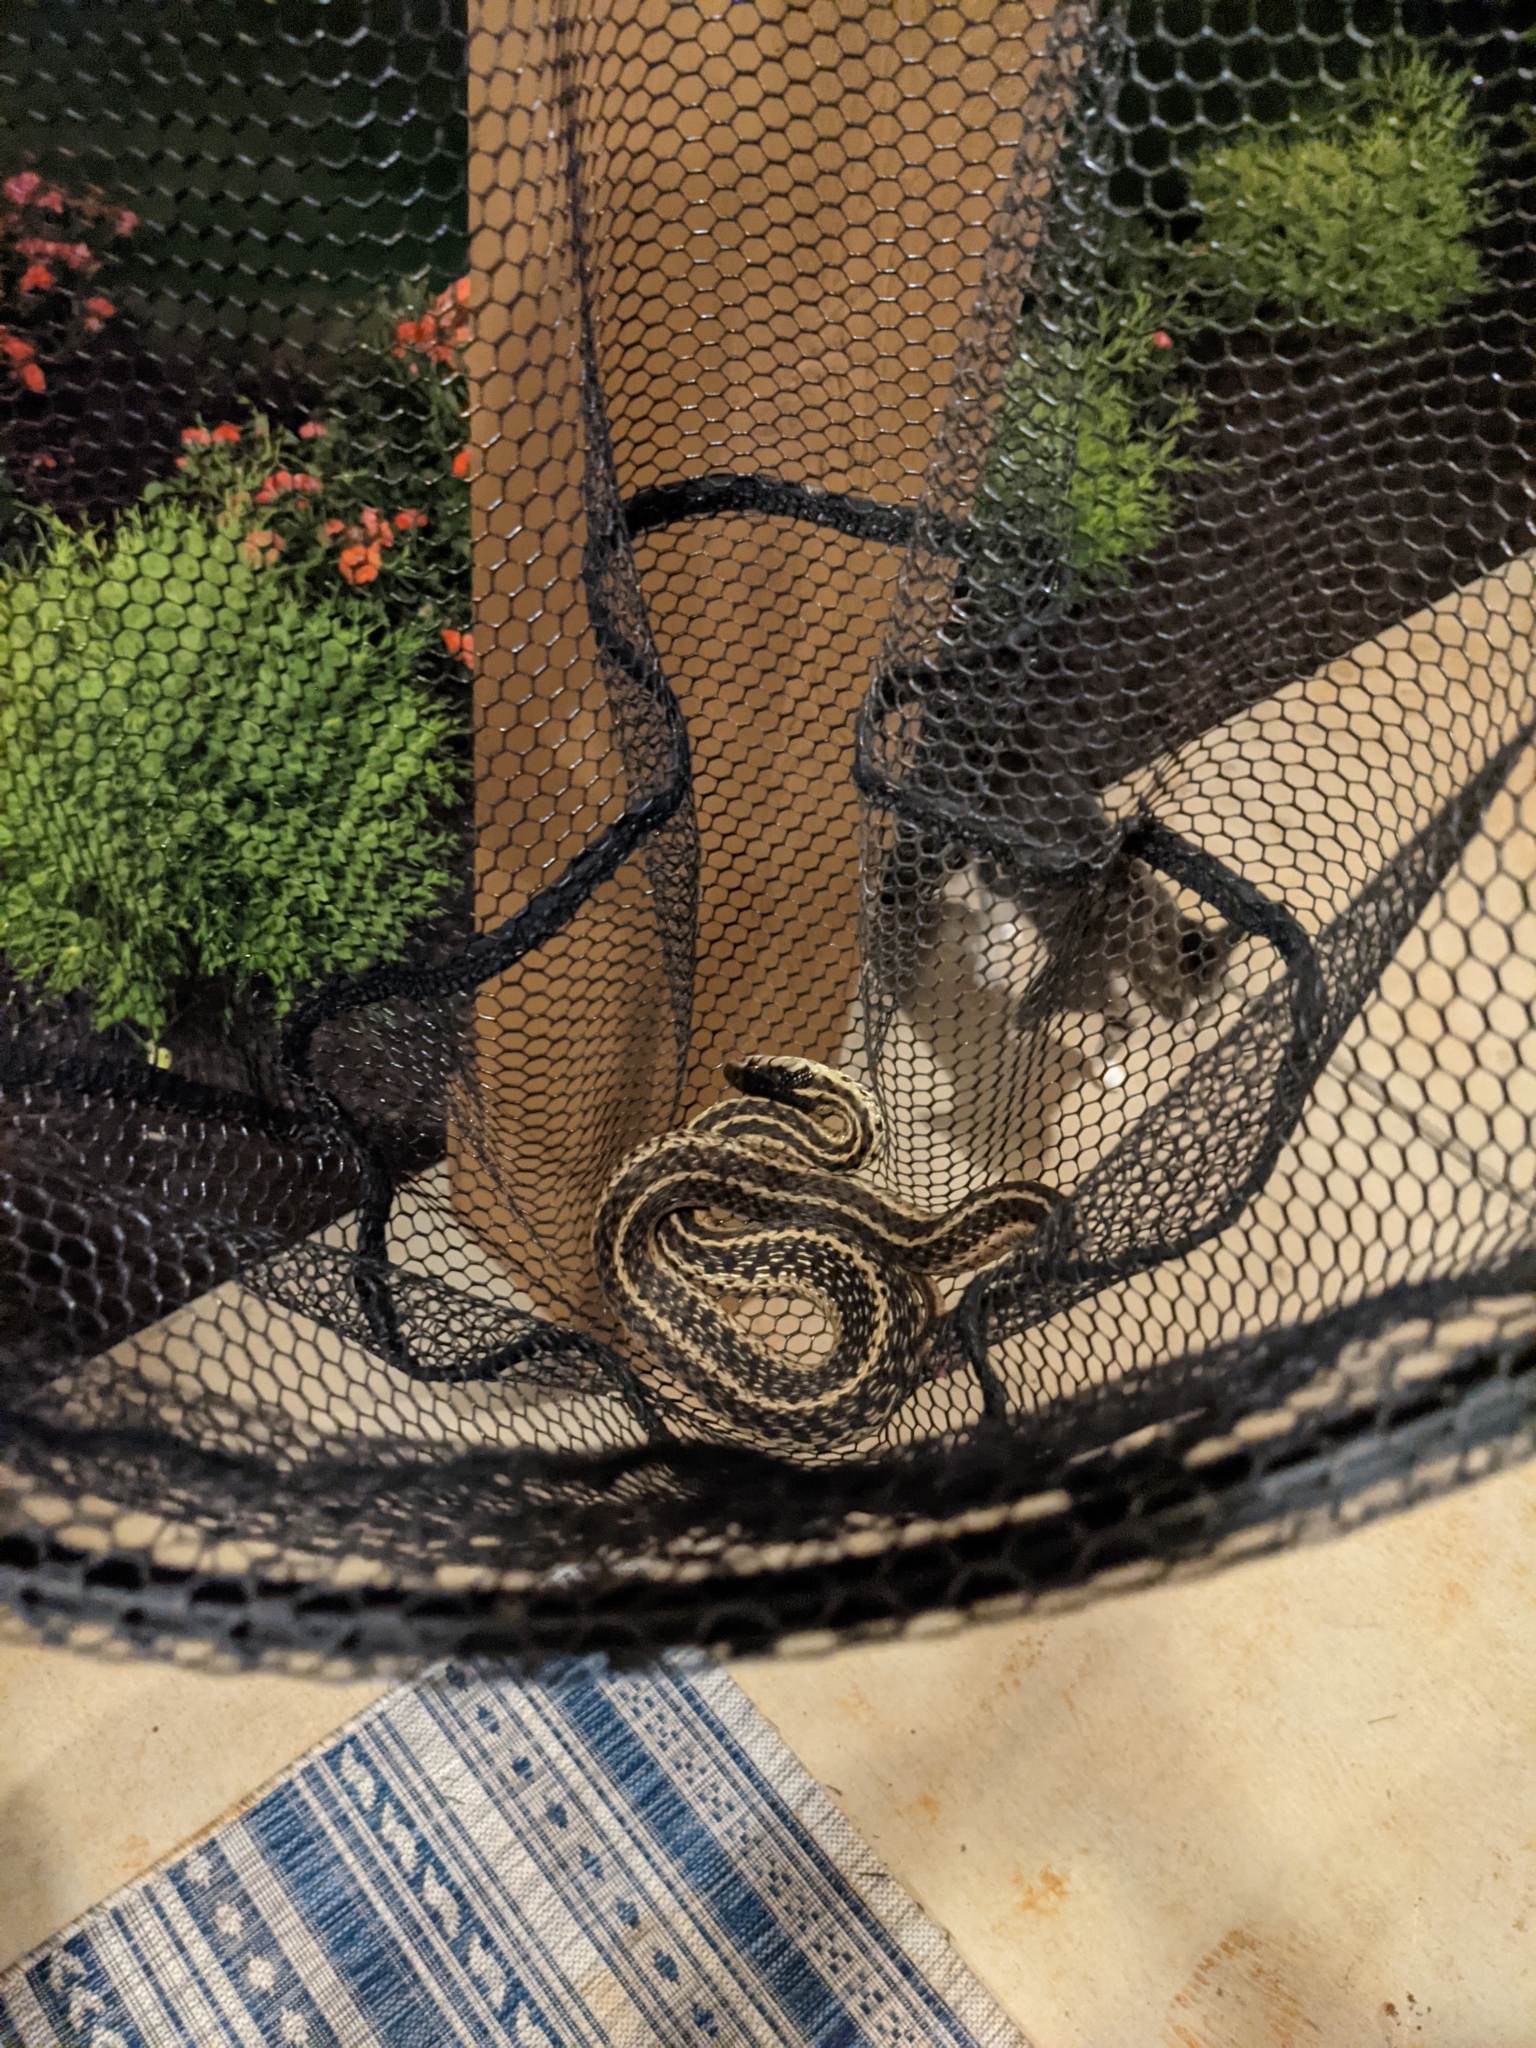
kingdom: Animalia
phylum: Chordata
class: Squamata
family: Colubridae
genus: Thamnophis
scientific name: Thamnophis sirtalis
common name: Common garter snake
